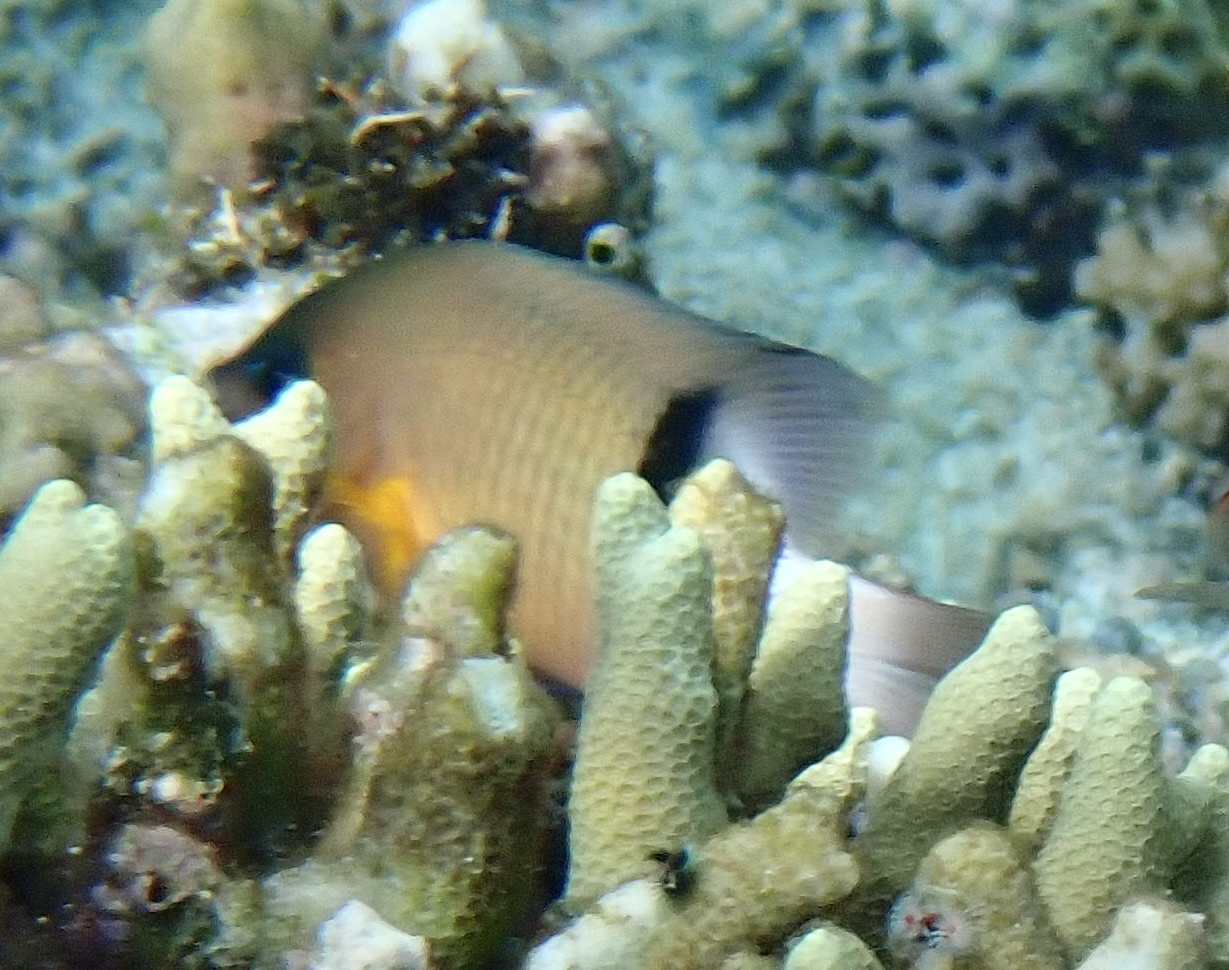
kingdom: Animalia
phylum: Chordata
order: Perciformes
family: Pomacentridae
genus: Plectroglyphidodon
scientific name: Plectroglyphidodon dickii
